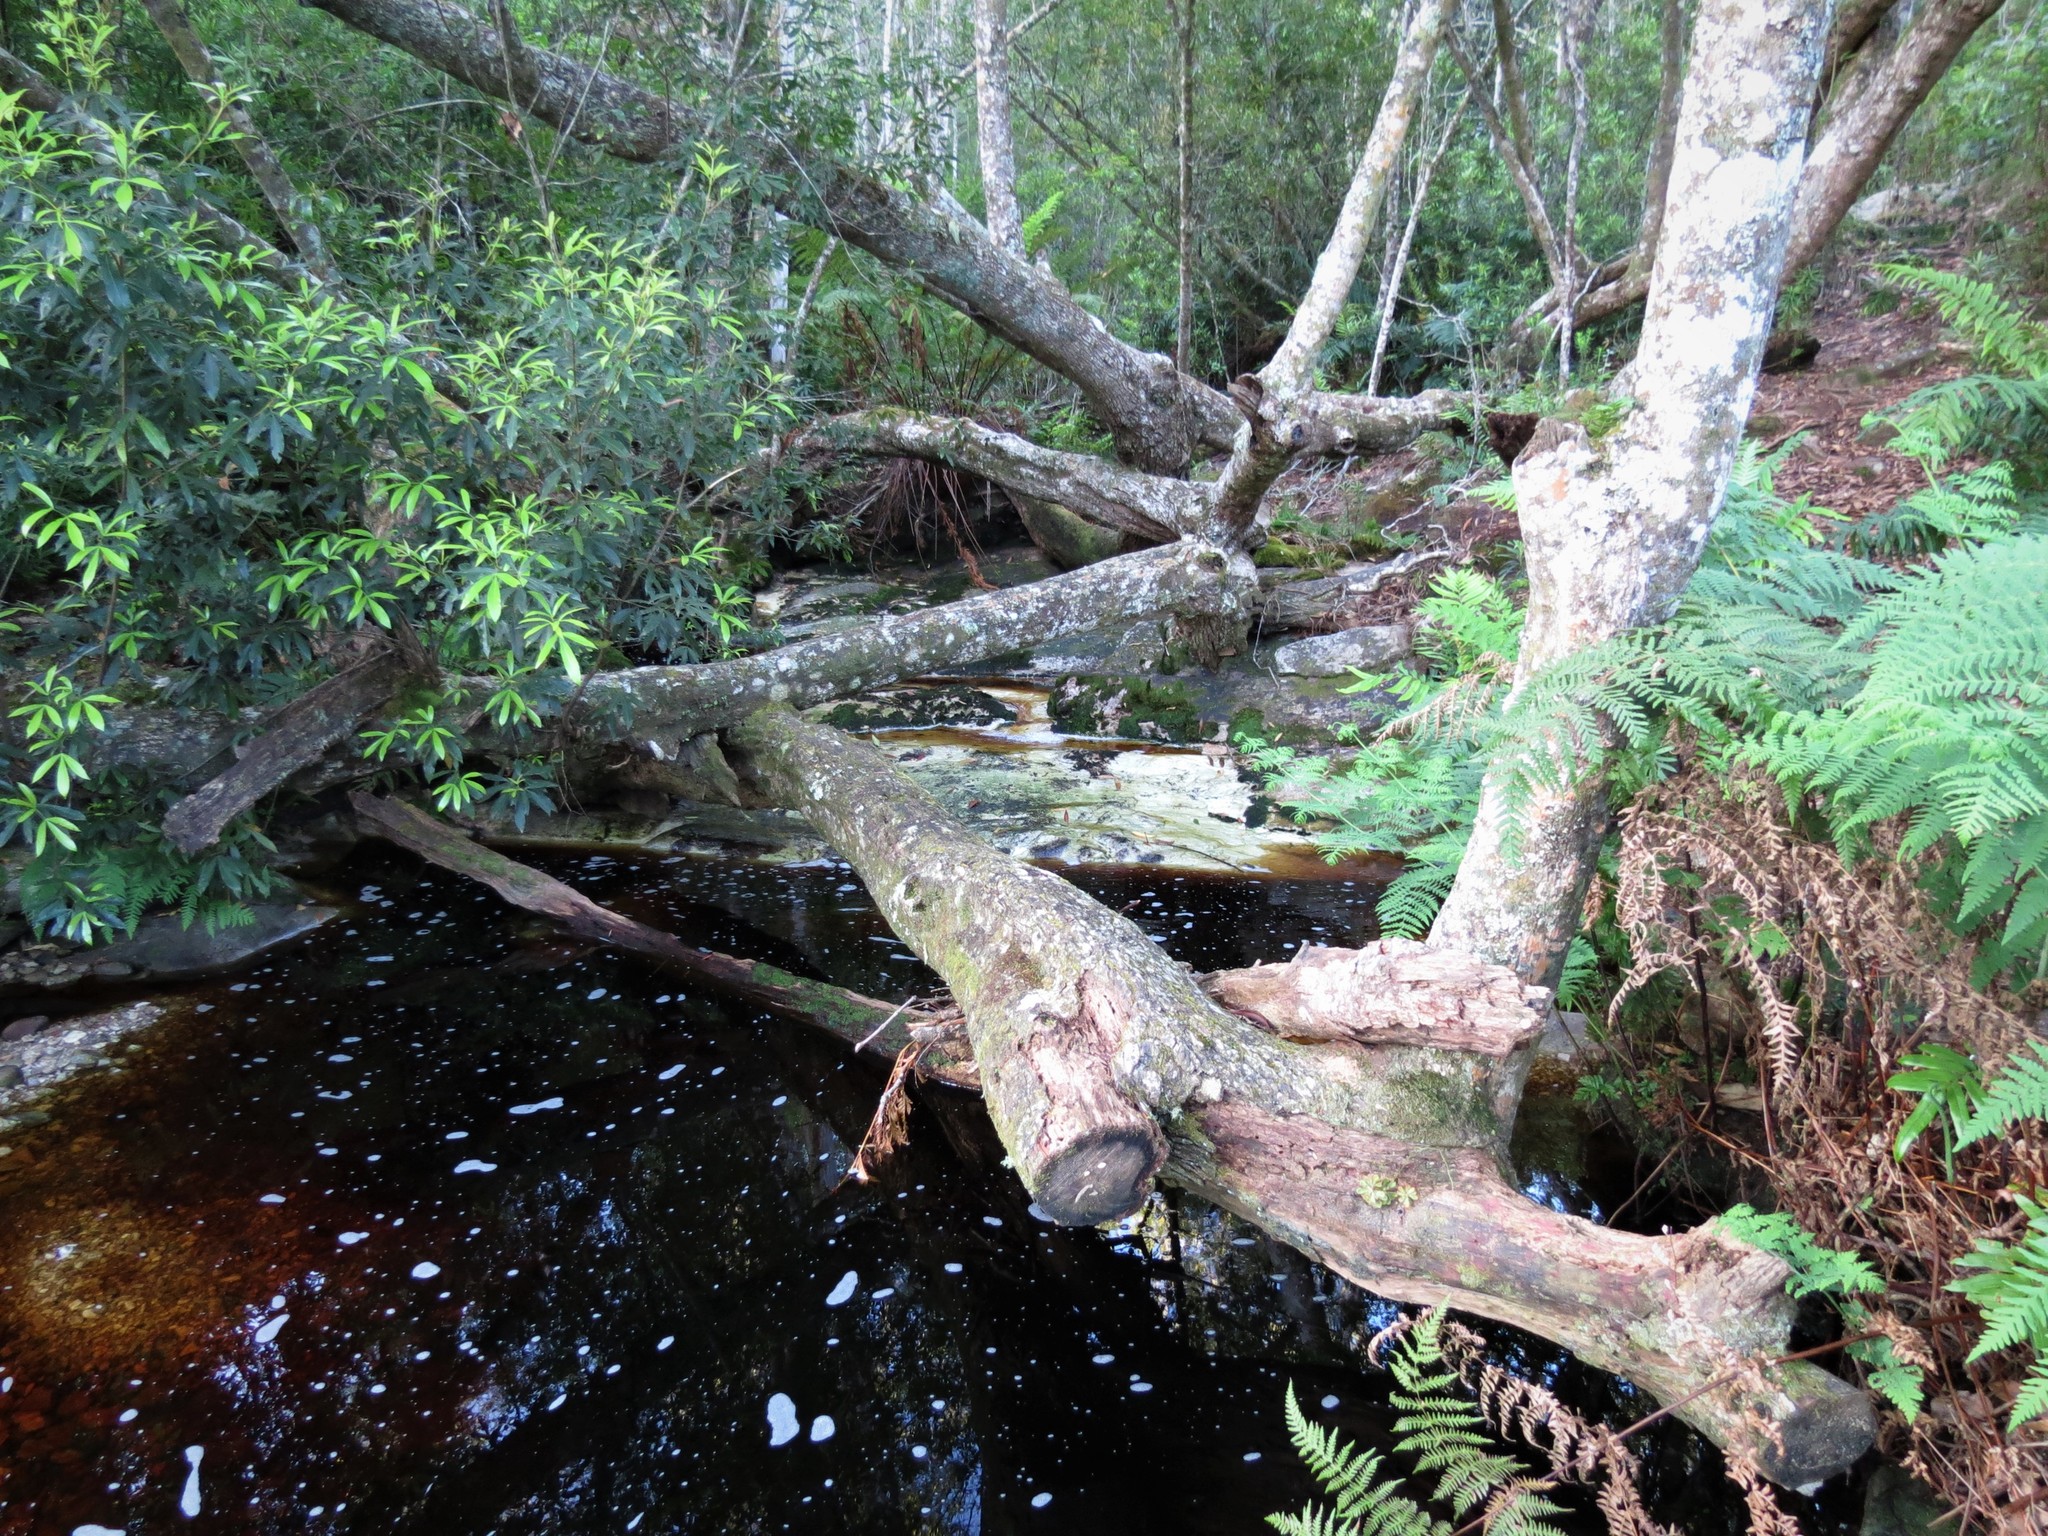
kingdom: Plantae
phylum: Tracheophyta
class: Magnoliopsida
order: Oxalidales
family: Cunoniaceae
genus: Platylophus
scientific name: Platylophus trifoliatus
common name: White alder
